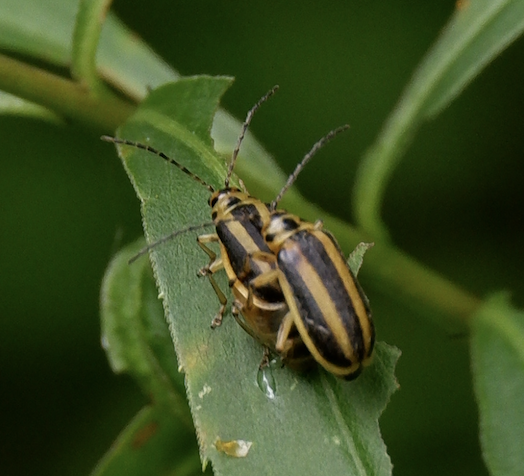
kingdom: Animalia
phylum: Arthropoda
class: Insecta
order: Coleoptera
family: Chrysomelidae
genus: Trirhabda
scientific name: Trirhabda canadensis
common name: Goldenrod leaf beetle
